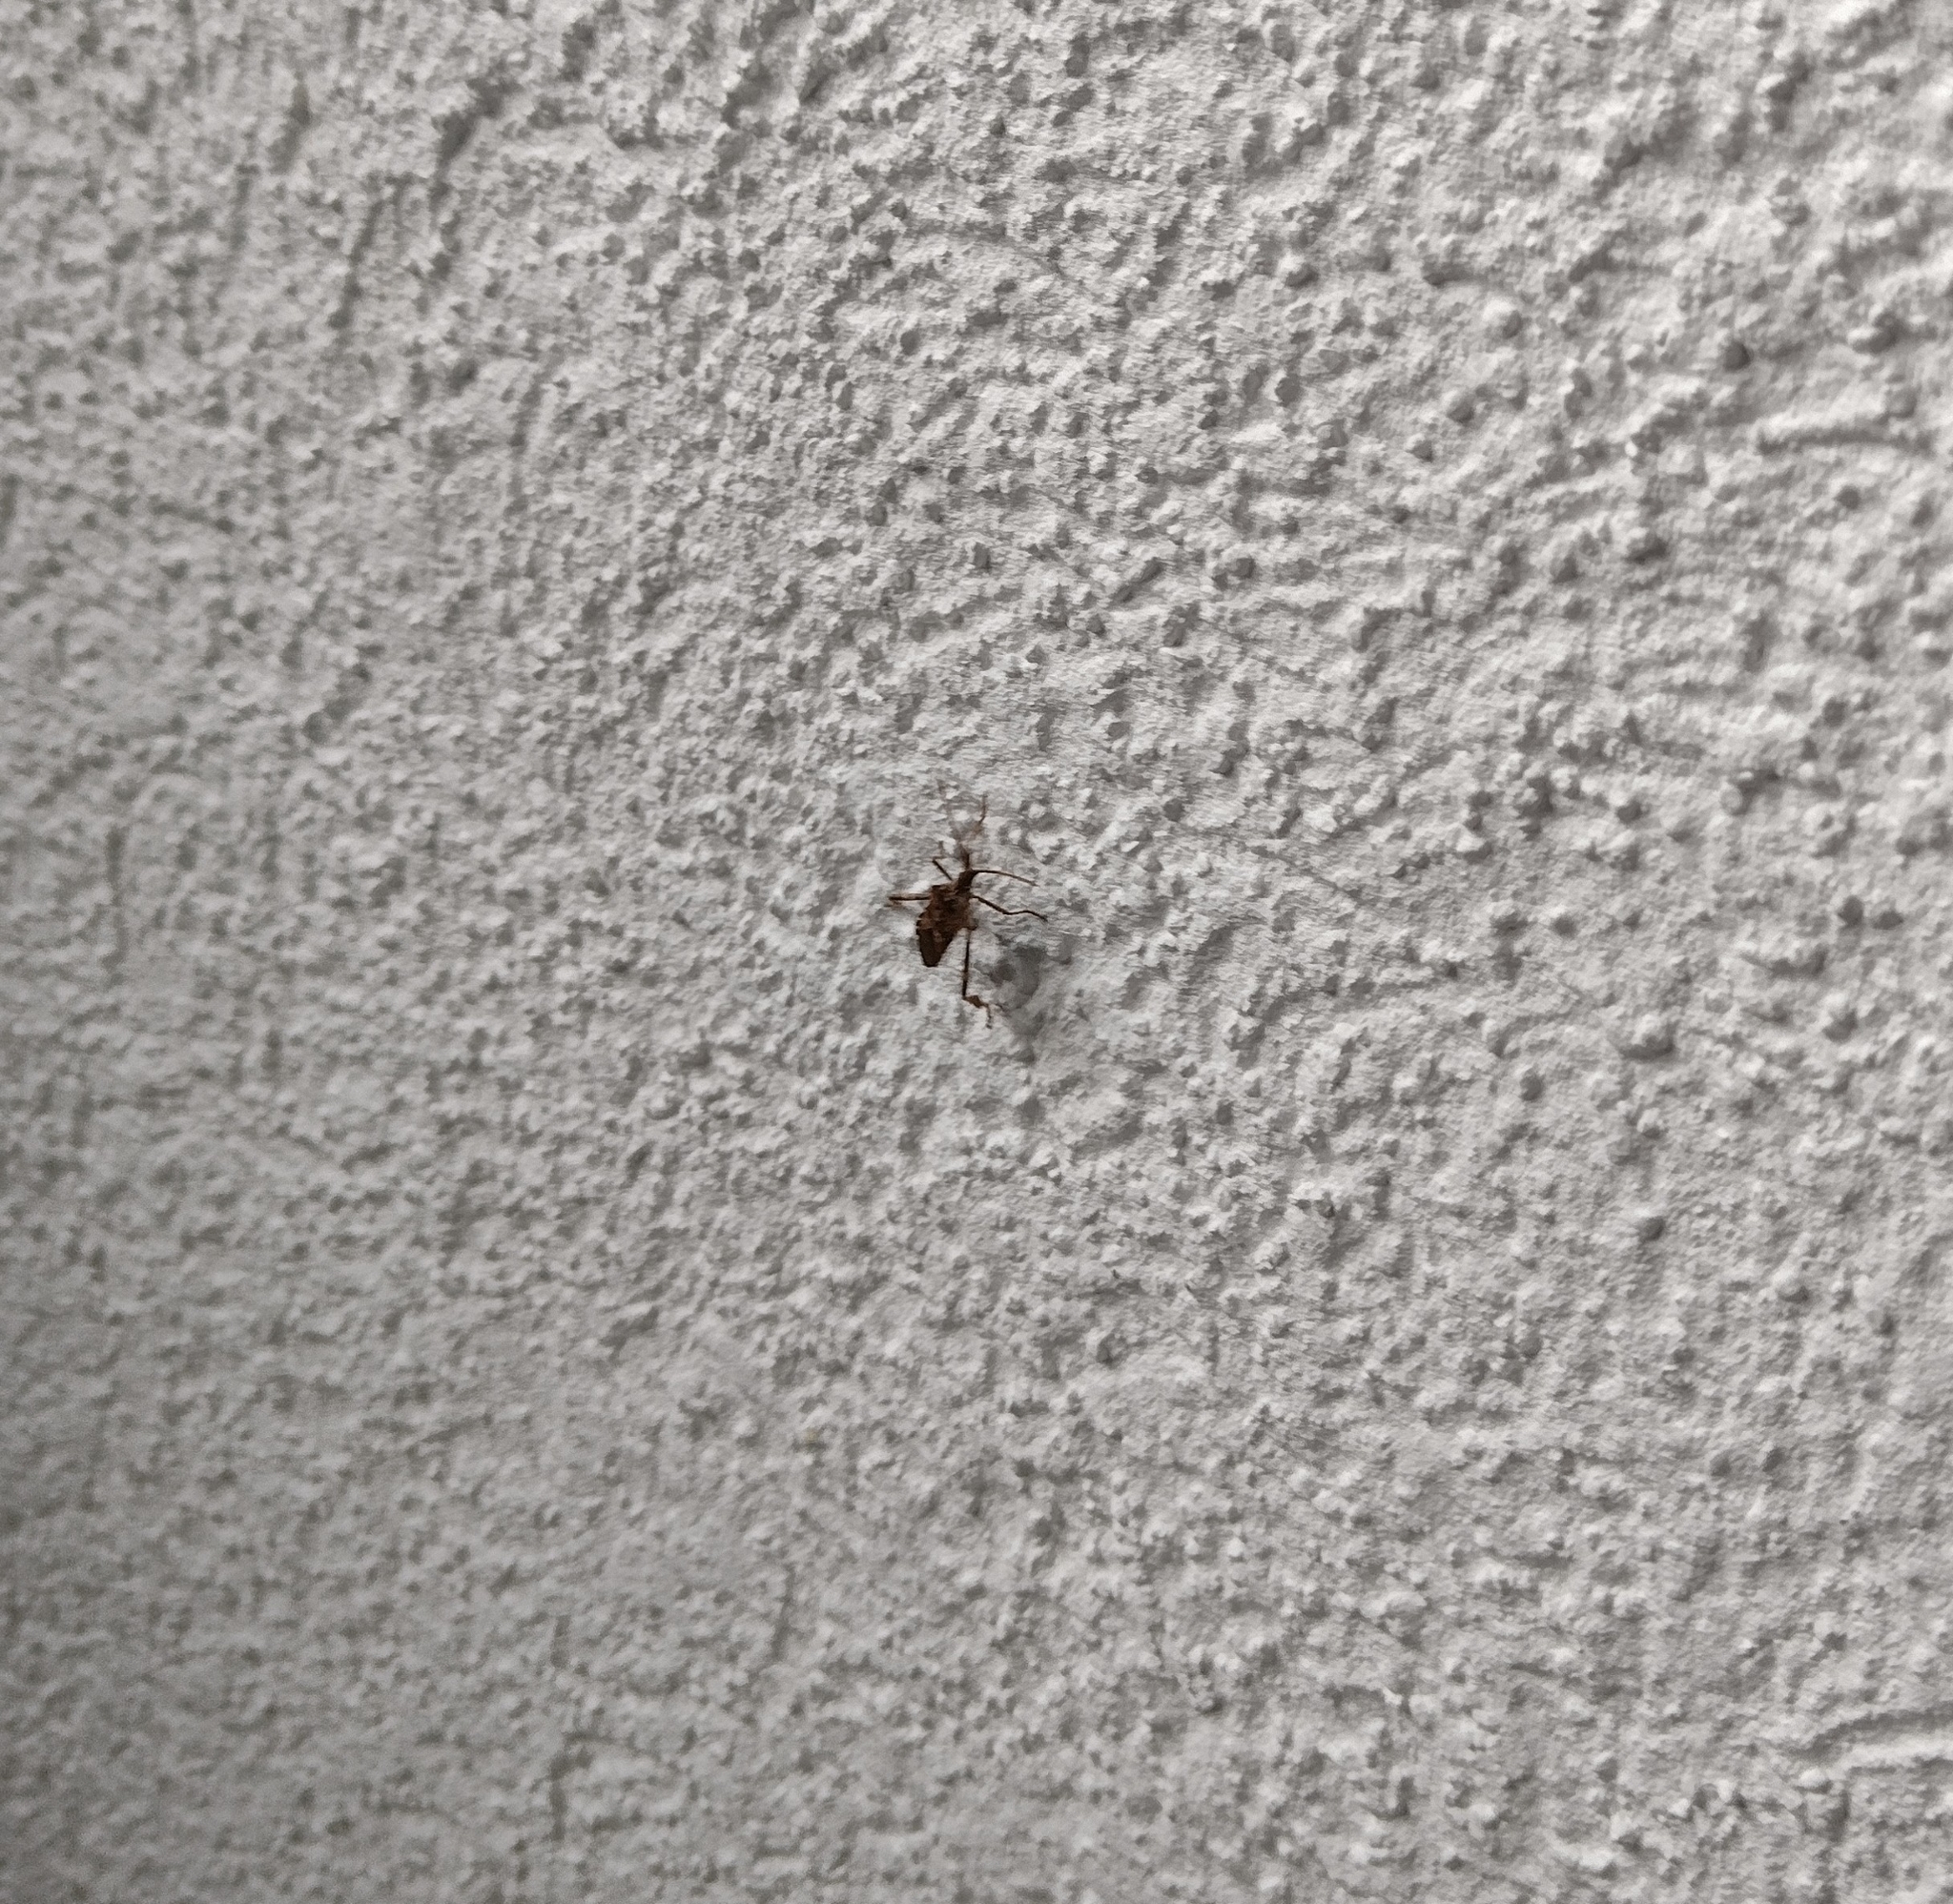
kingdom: Animalia
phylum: Arthropoda
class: Insecta
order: Hemiptera
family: Coreidae
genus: Leptoglossus
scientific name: Leptoglossus occidentalis
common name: Western conifer-seed bug
